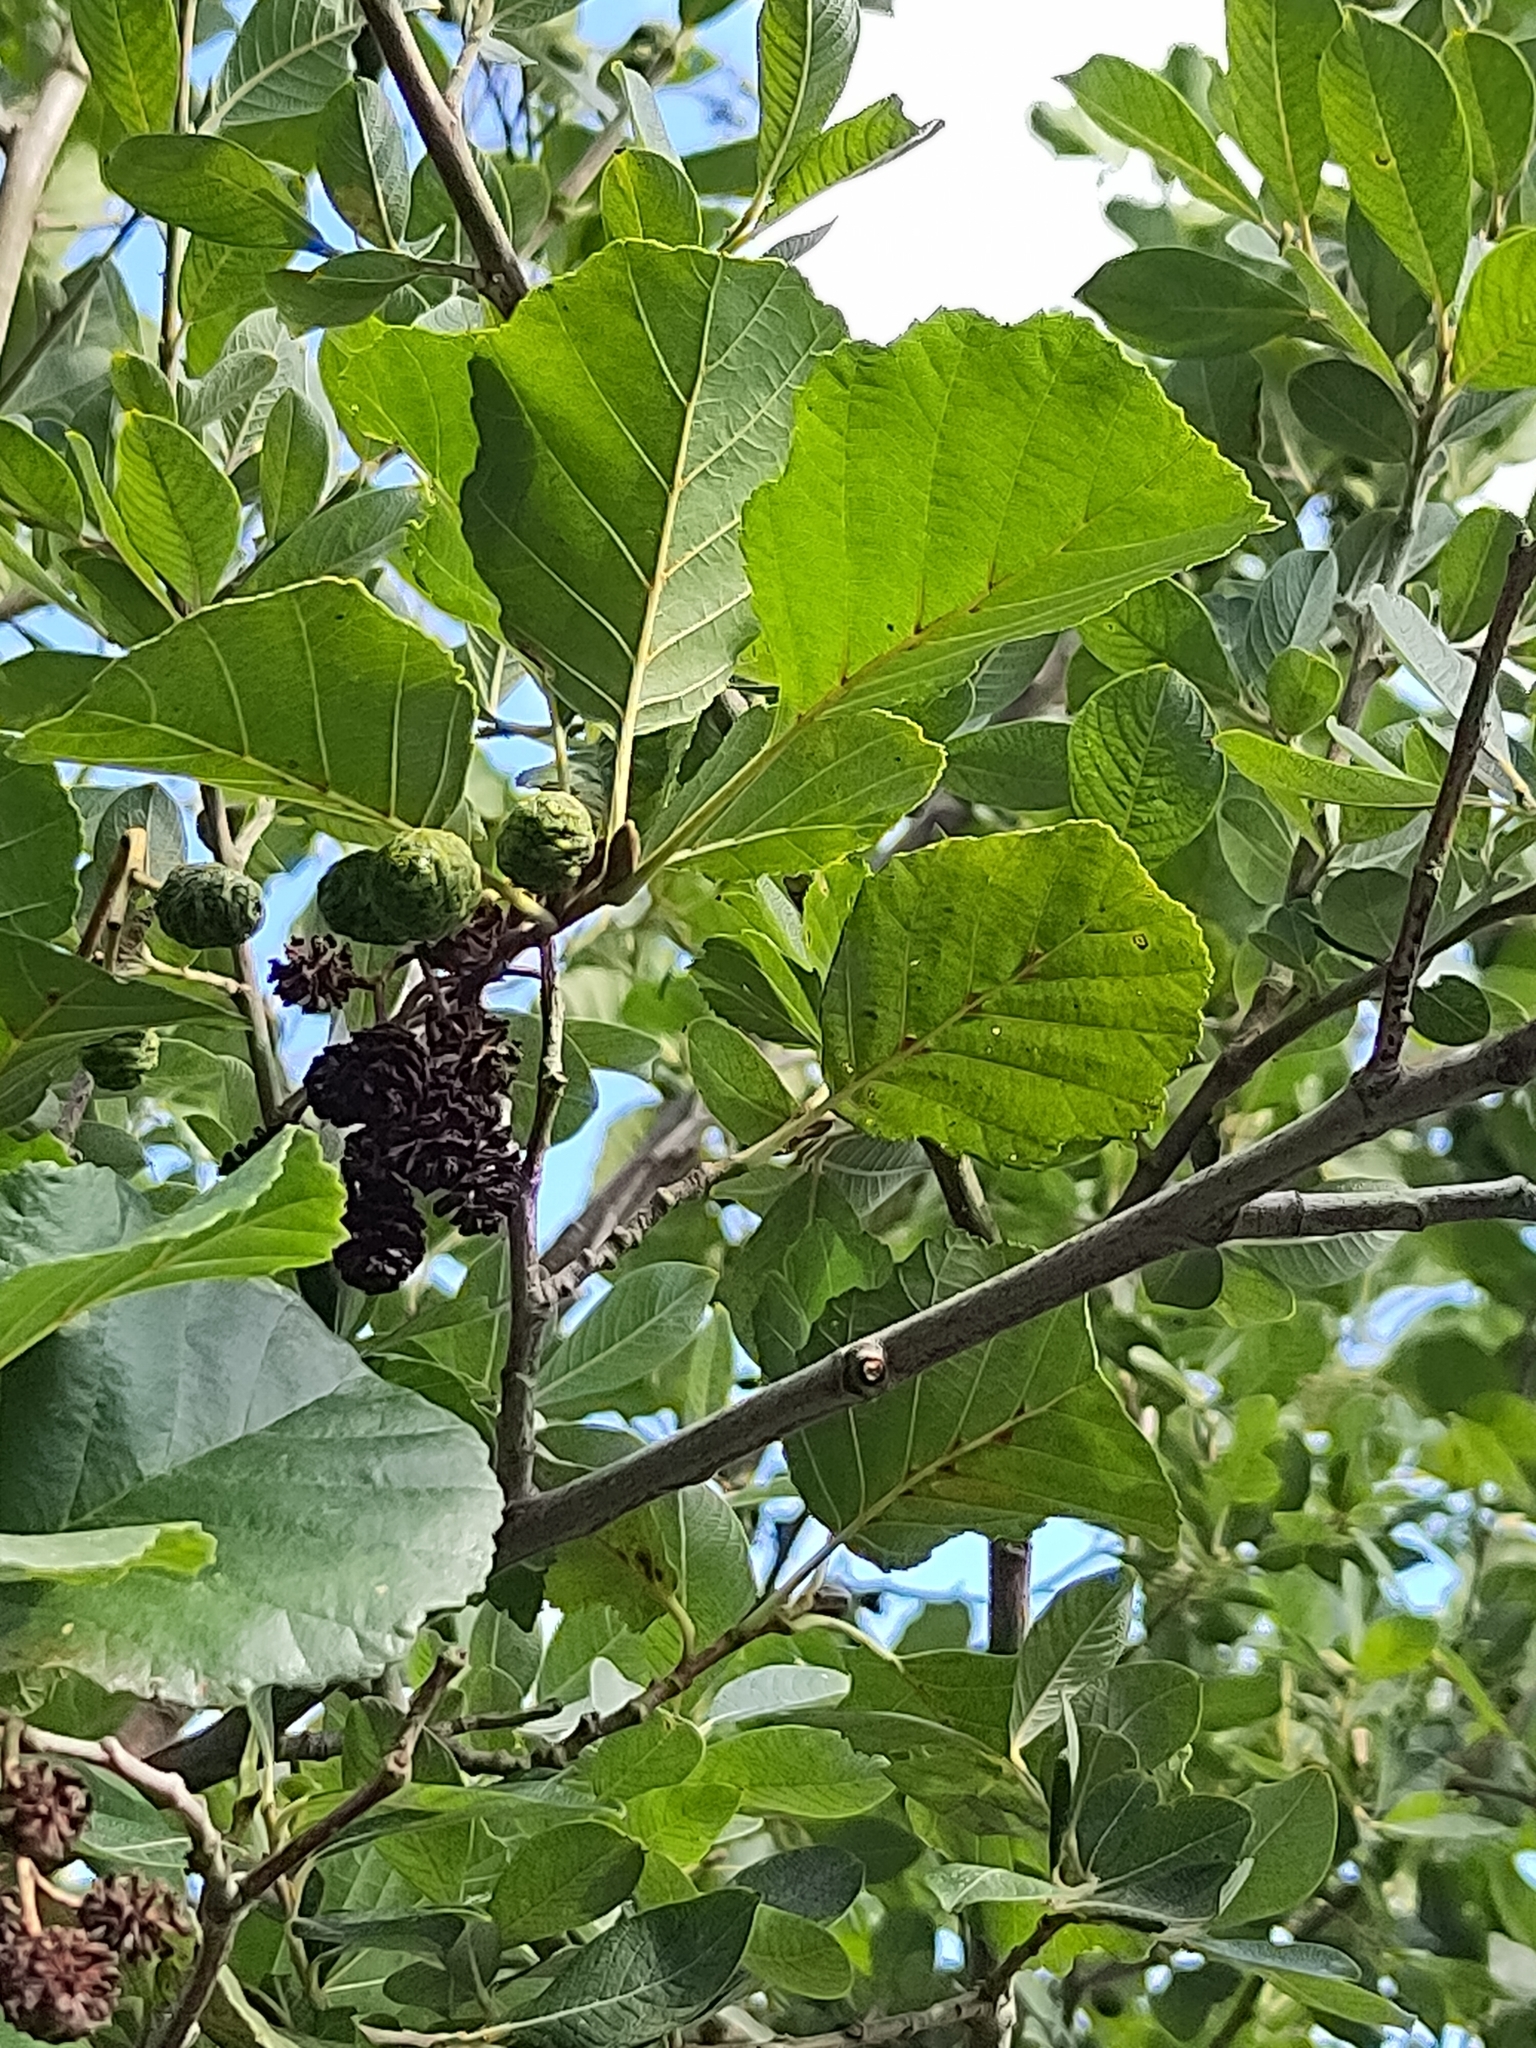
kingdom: Plantae
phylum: Tracheophyta
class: Magnoliopsida
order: Fagales
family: Betulaceae
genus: Alnus
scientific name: Alnus glutinosa
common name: Black alder
